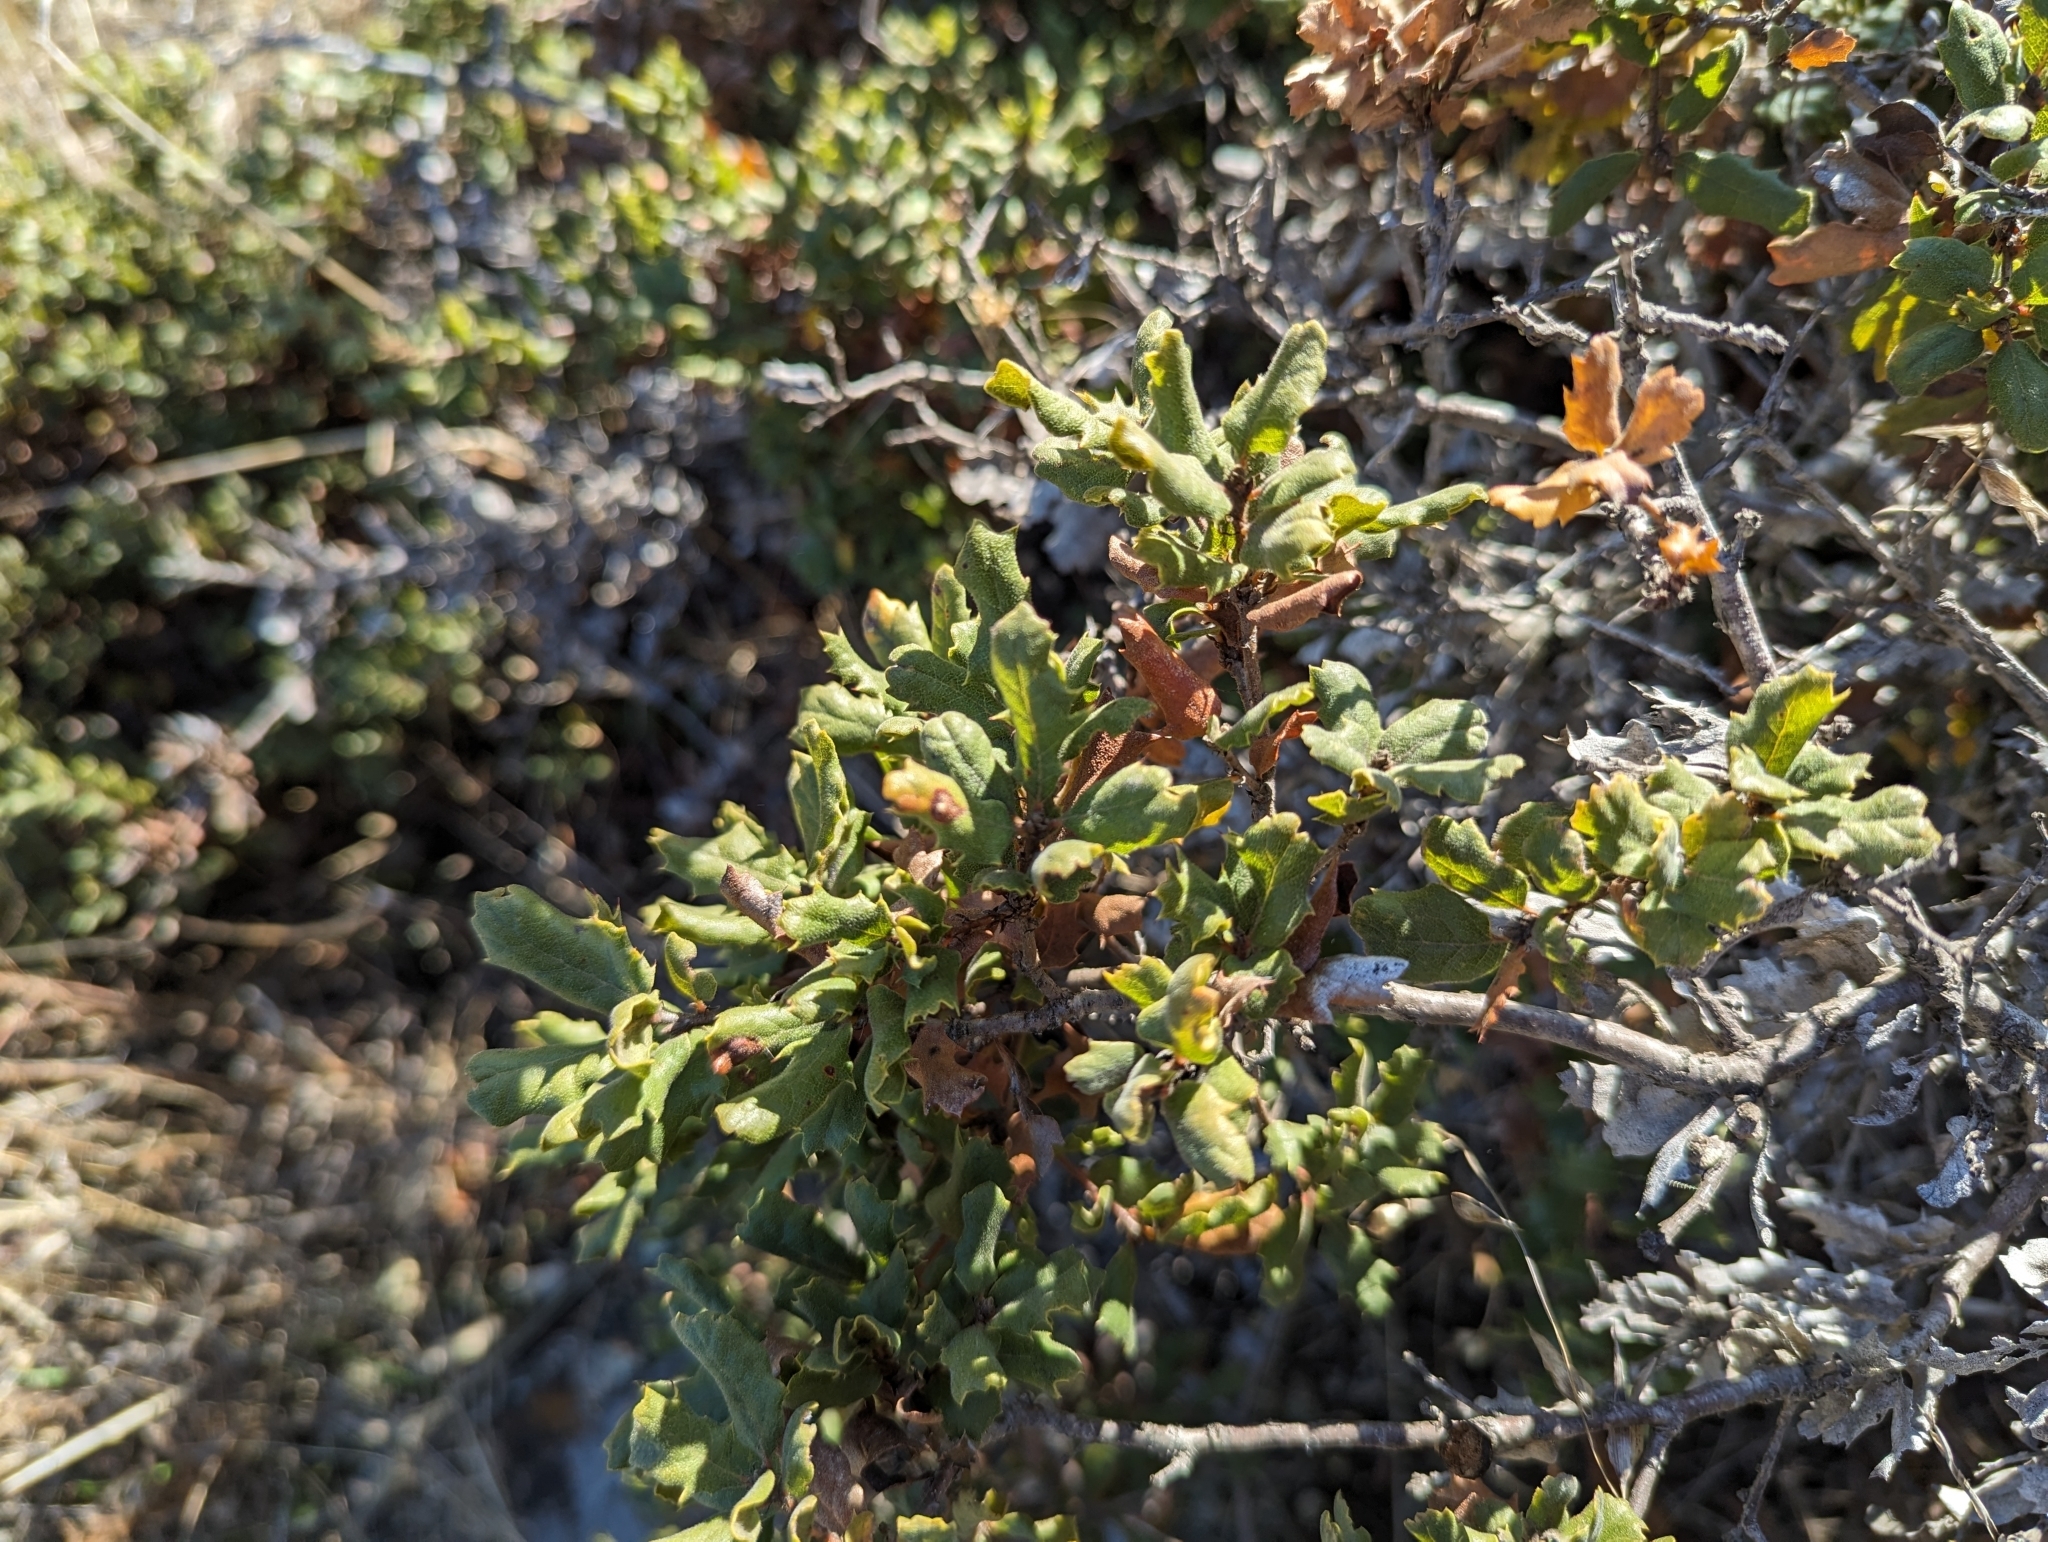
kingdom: Plantae
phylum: Tracheophyta
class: Magnoliopsida
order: Fagales
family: Fagaceae
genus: Quercus
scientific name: Quercus durata
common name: Leather oak
